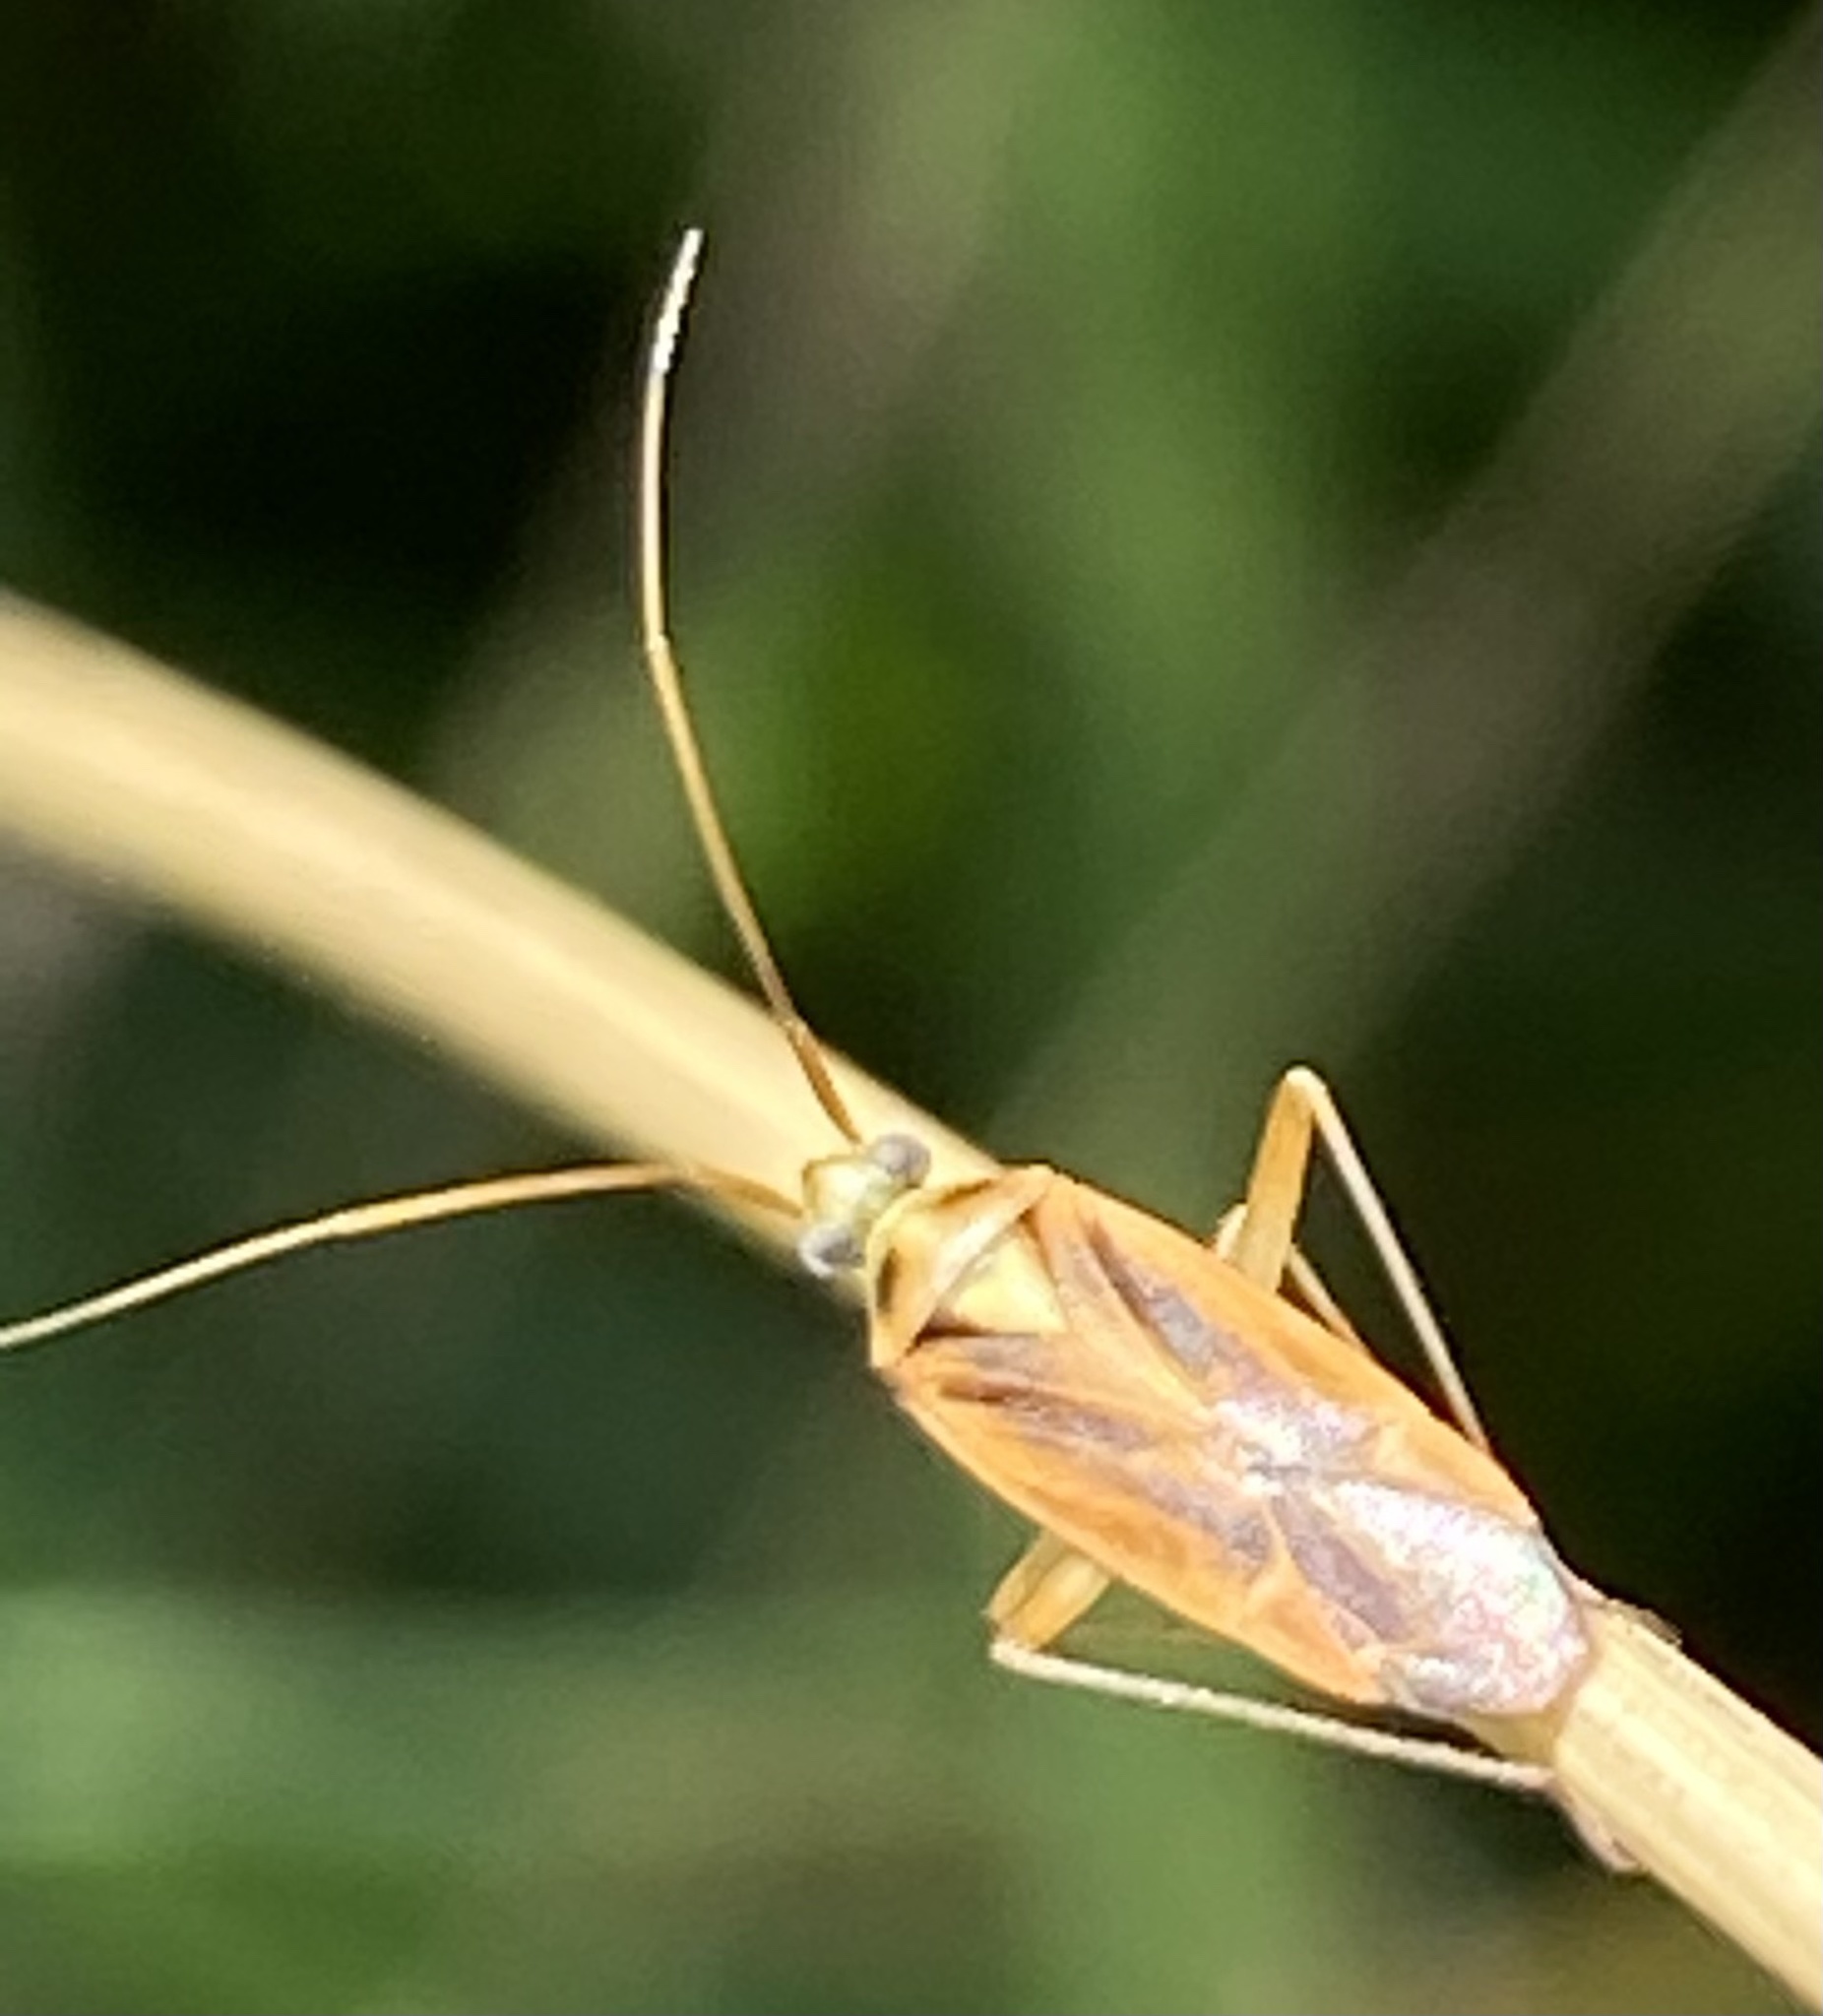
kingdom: Animalia
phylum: Arthropoda
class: Insecta
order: Hemiptera
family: Miridae
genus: Stenotus
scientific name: Stenotus binotatus
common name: Plant bug
